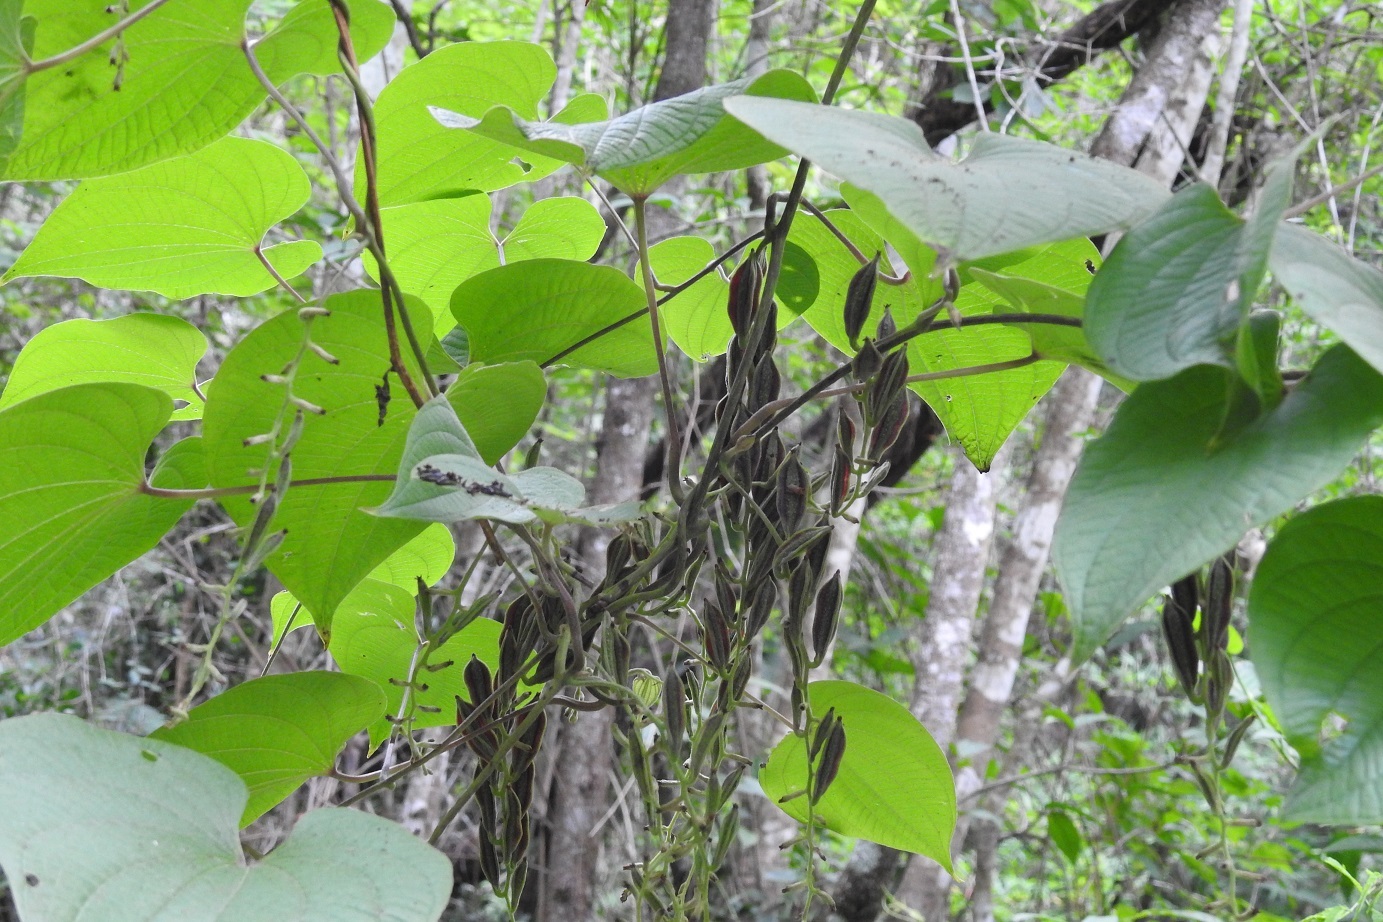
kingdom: Plantae
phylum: Tracheophyta
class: Liliopsida
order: Dioscoreales
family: Dioscoreaceae
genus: Dioscorea
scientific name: Dioscorea carpomaculata
